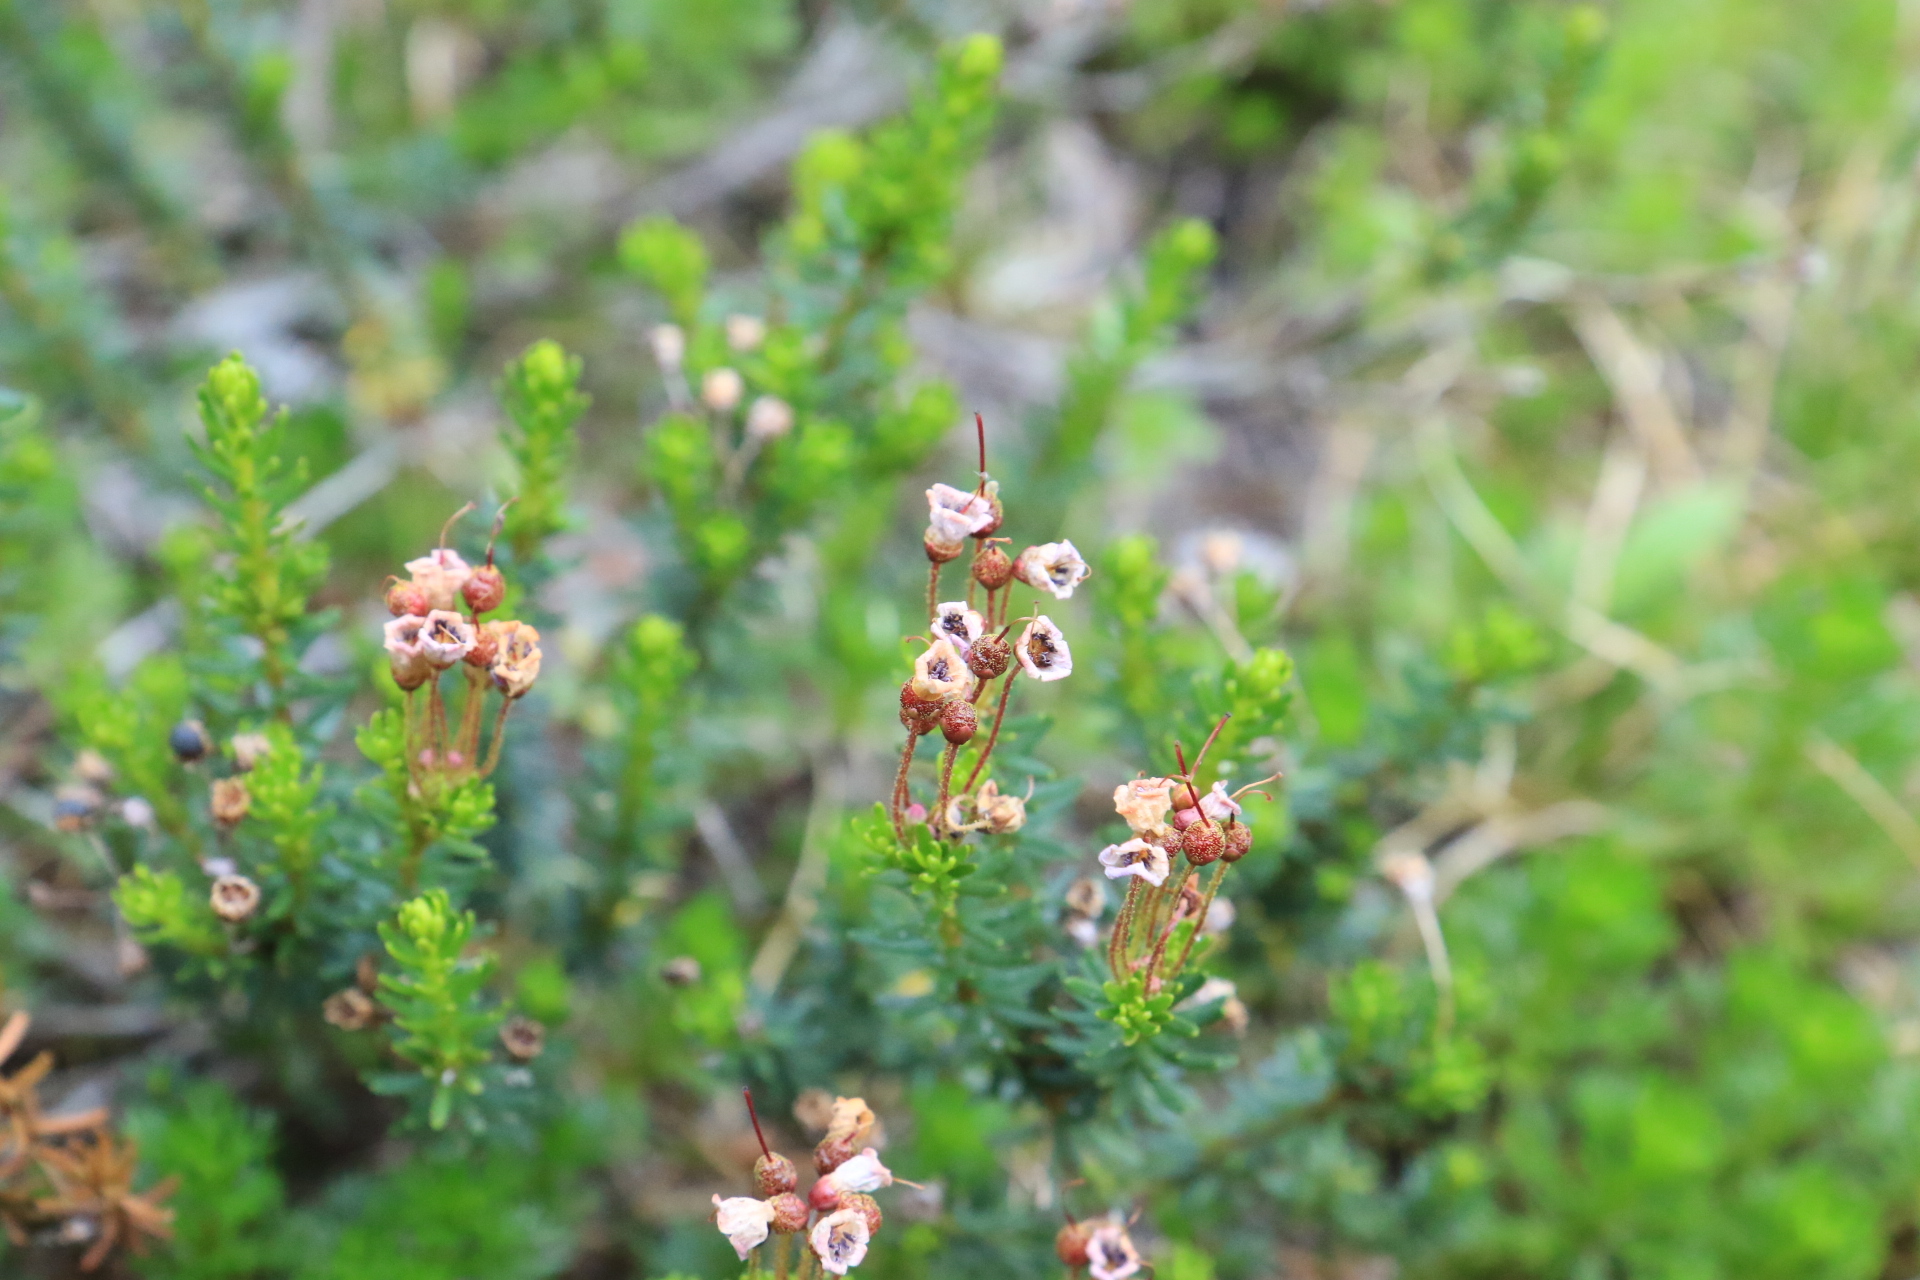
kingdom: Plantae
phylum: Tracheophyta
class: Magnoliopsida
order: Ericales
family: Ericaceae
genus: Phyllodoce
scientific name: Phyllodoce empetriformis
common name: Pink mountain heather
